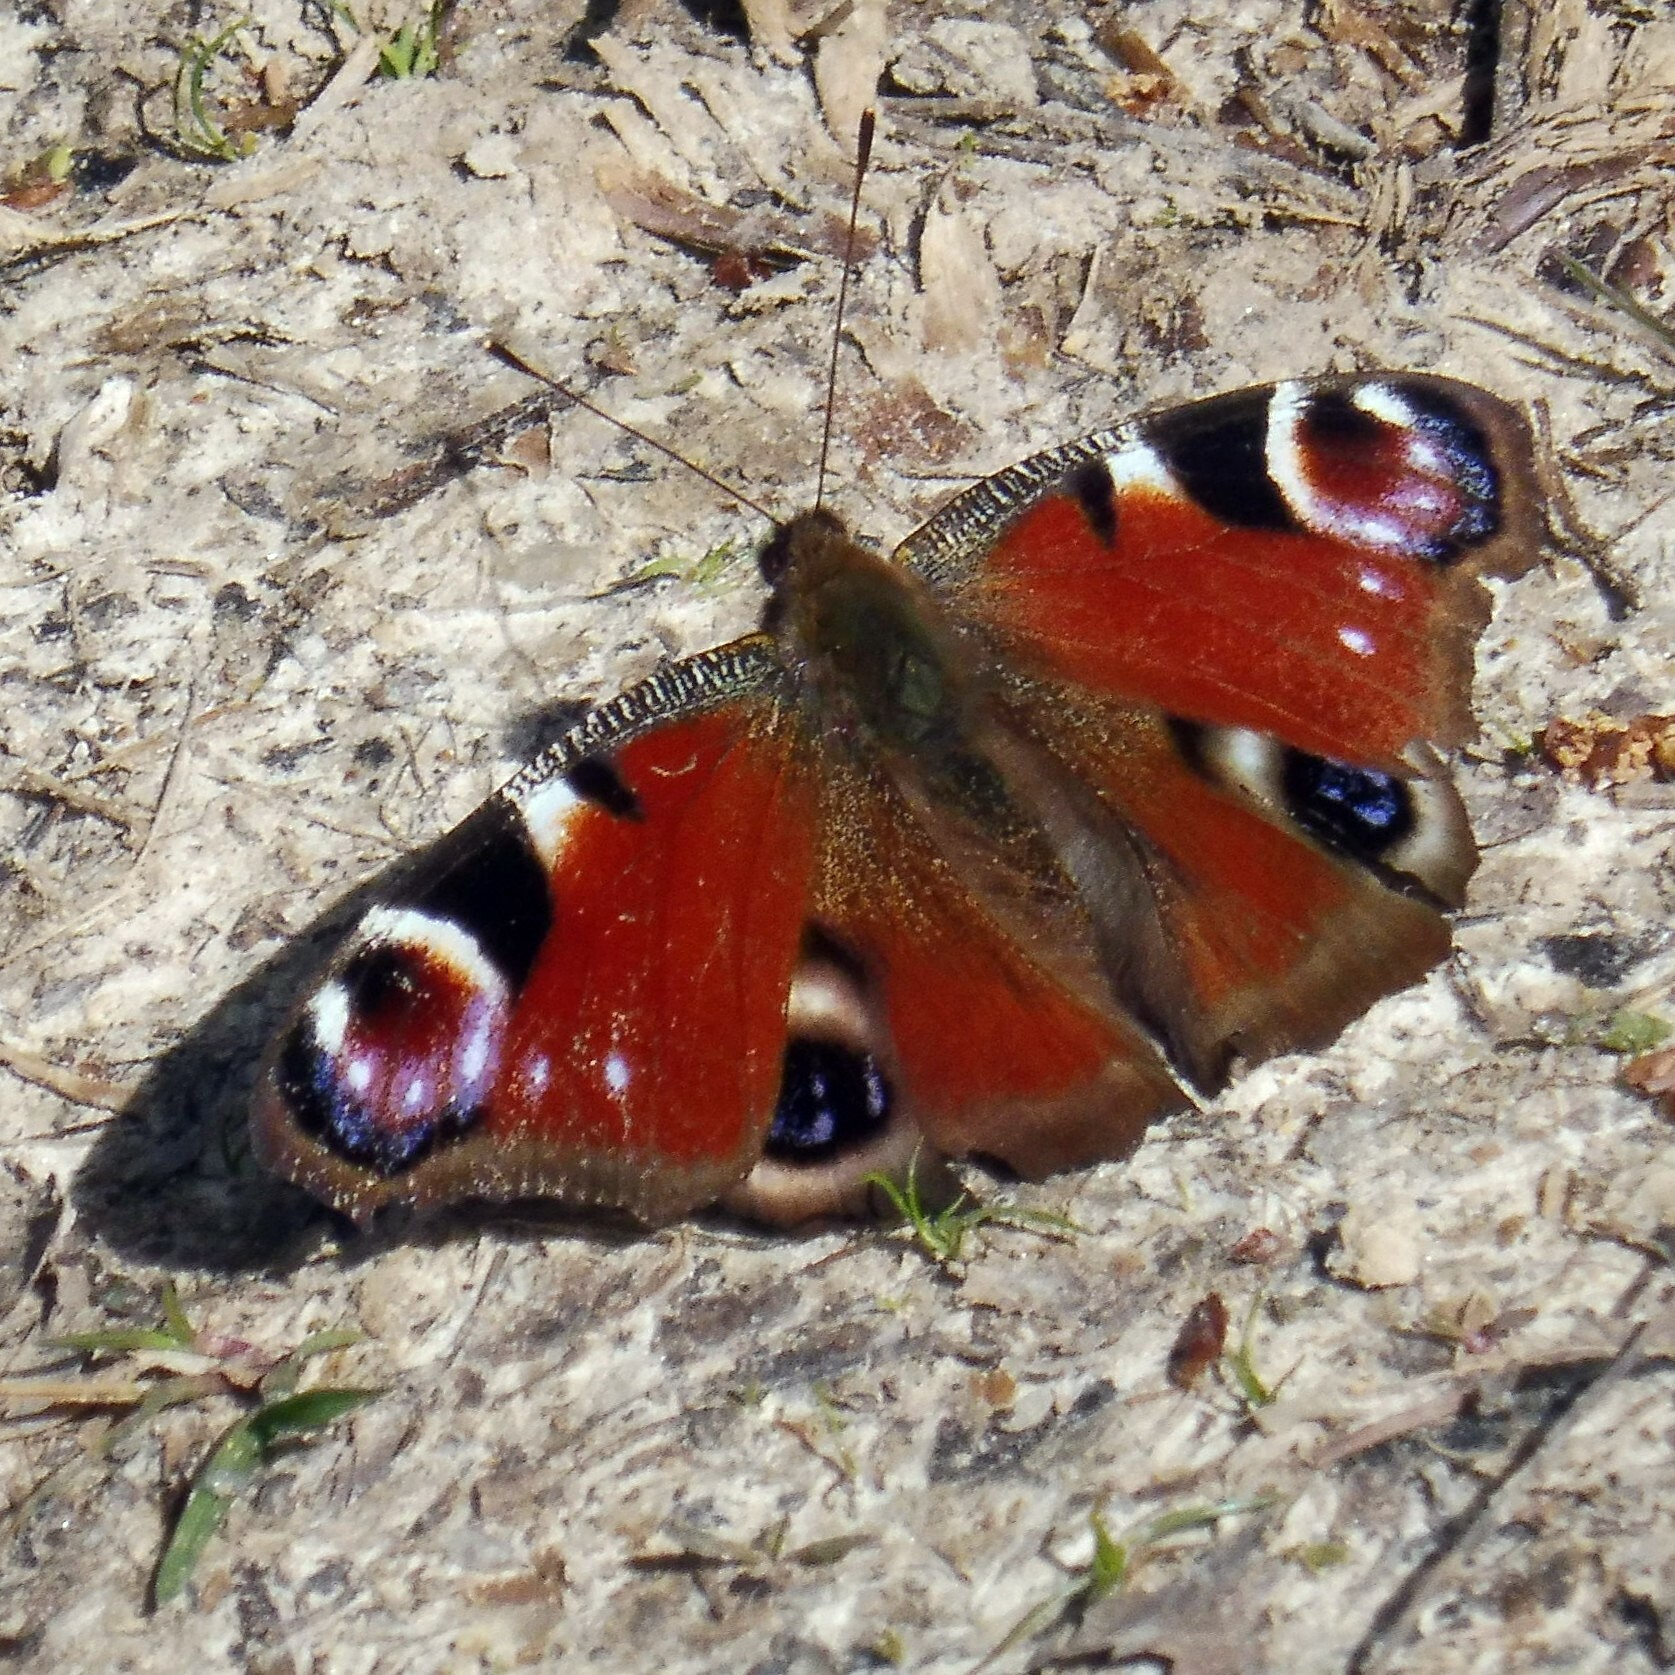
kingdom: Animalia
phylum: Arthropoda
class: Insecta
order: Lepidoptera
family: Nymphalidae
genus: Aglais
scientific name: Aglais io
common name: Peacock
